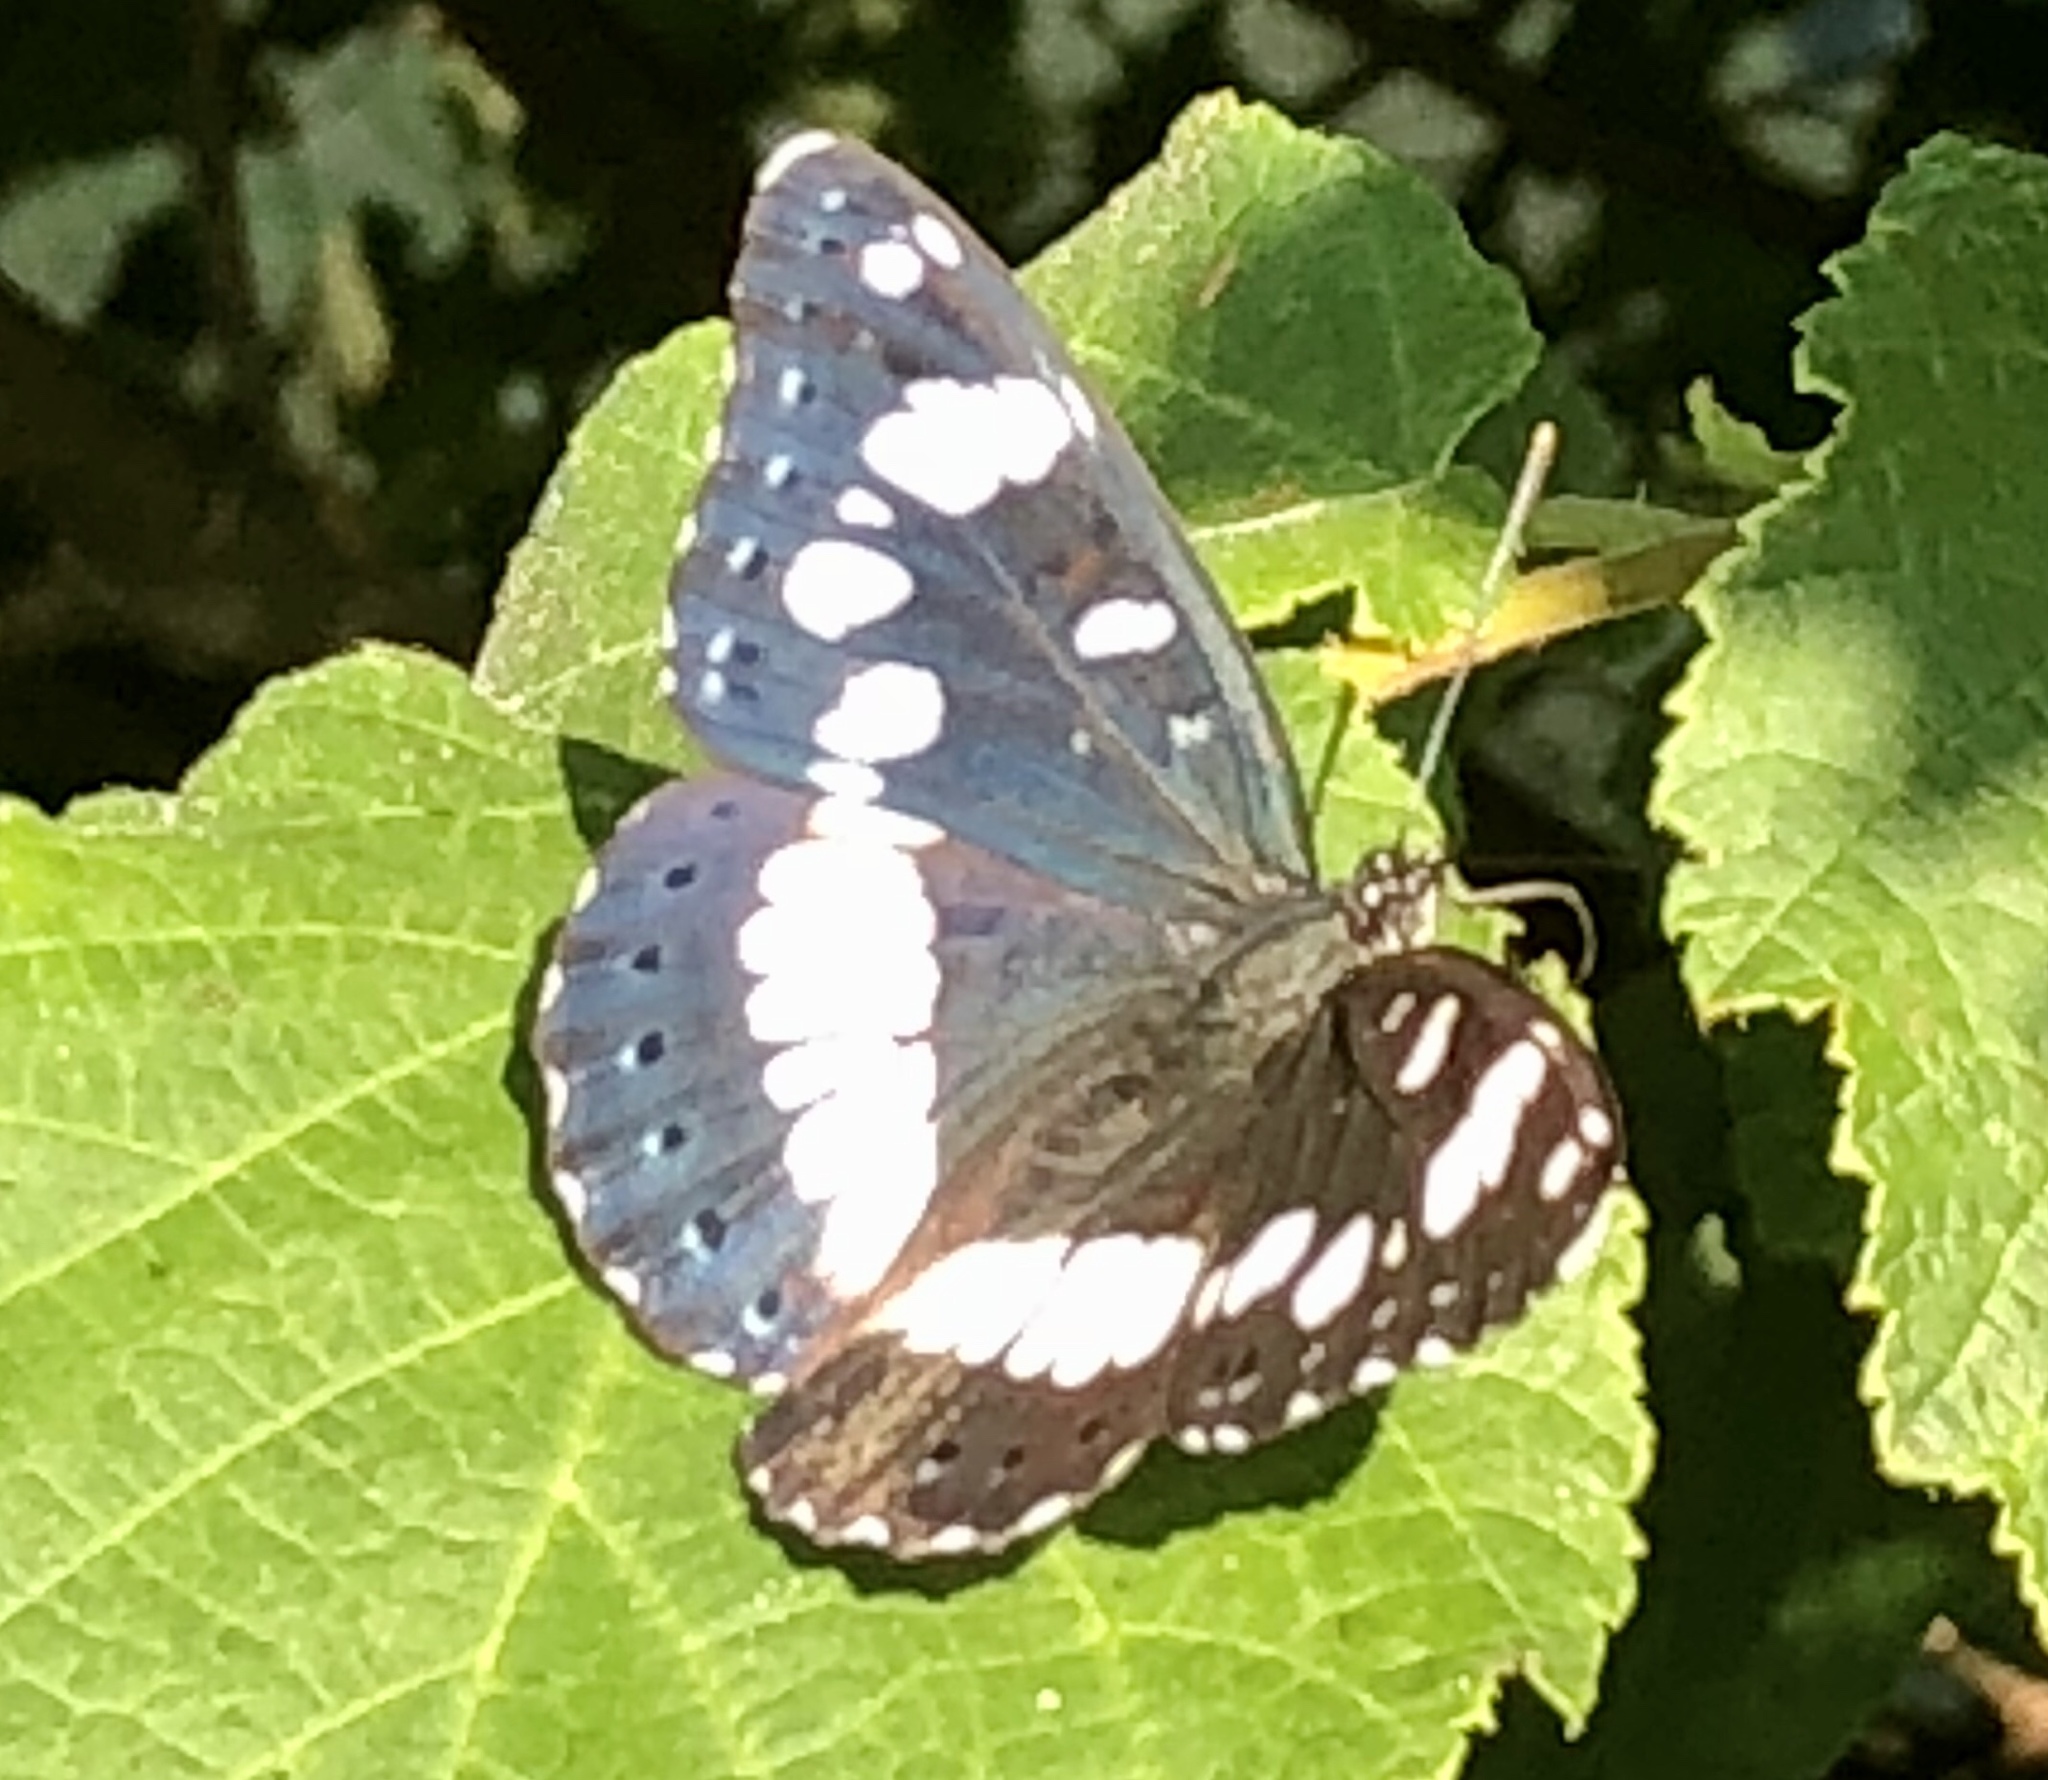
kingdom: Animalia
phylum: Arthropoda
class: Insecta
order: Lepidoptera
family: Nymphalidae
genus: Limenitis
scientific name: Limenitis reducta
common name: Southern white admiral
